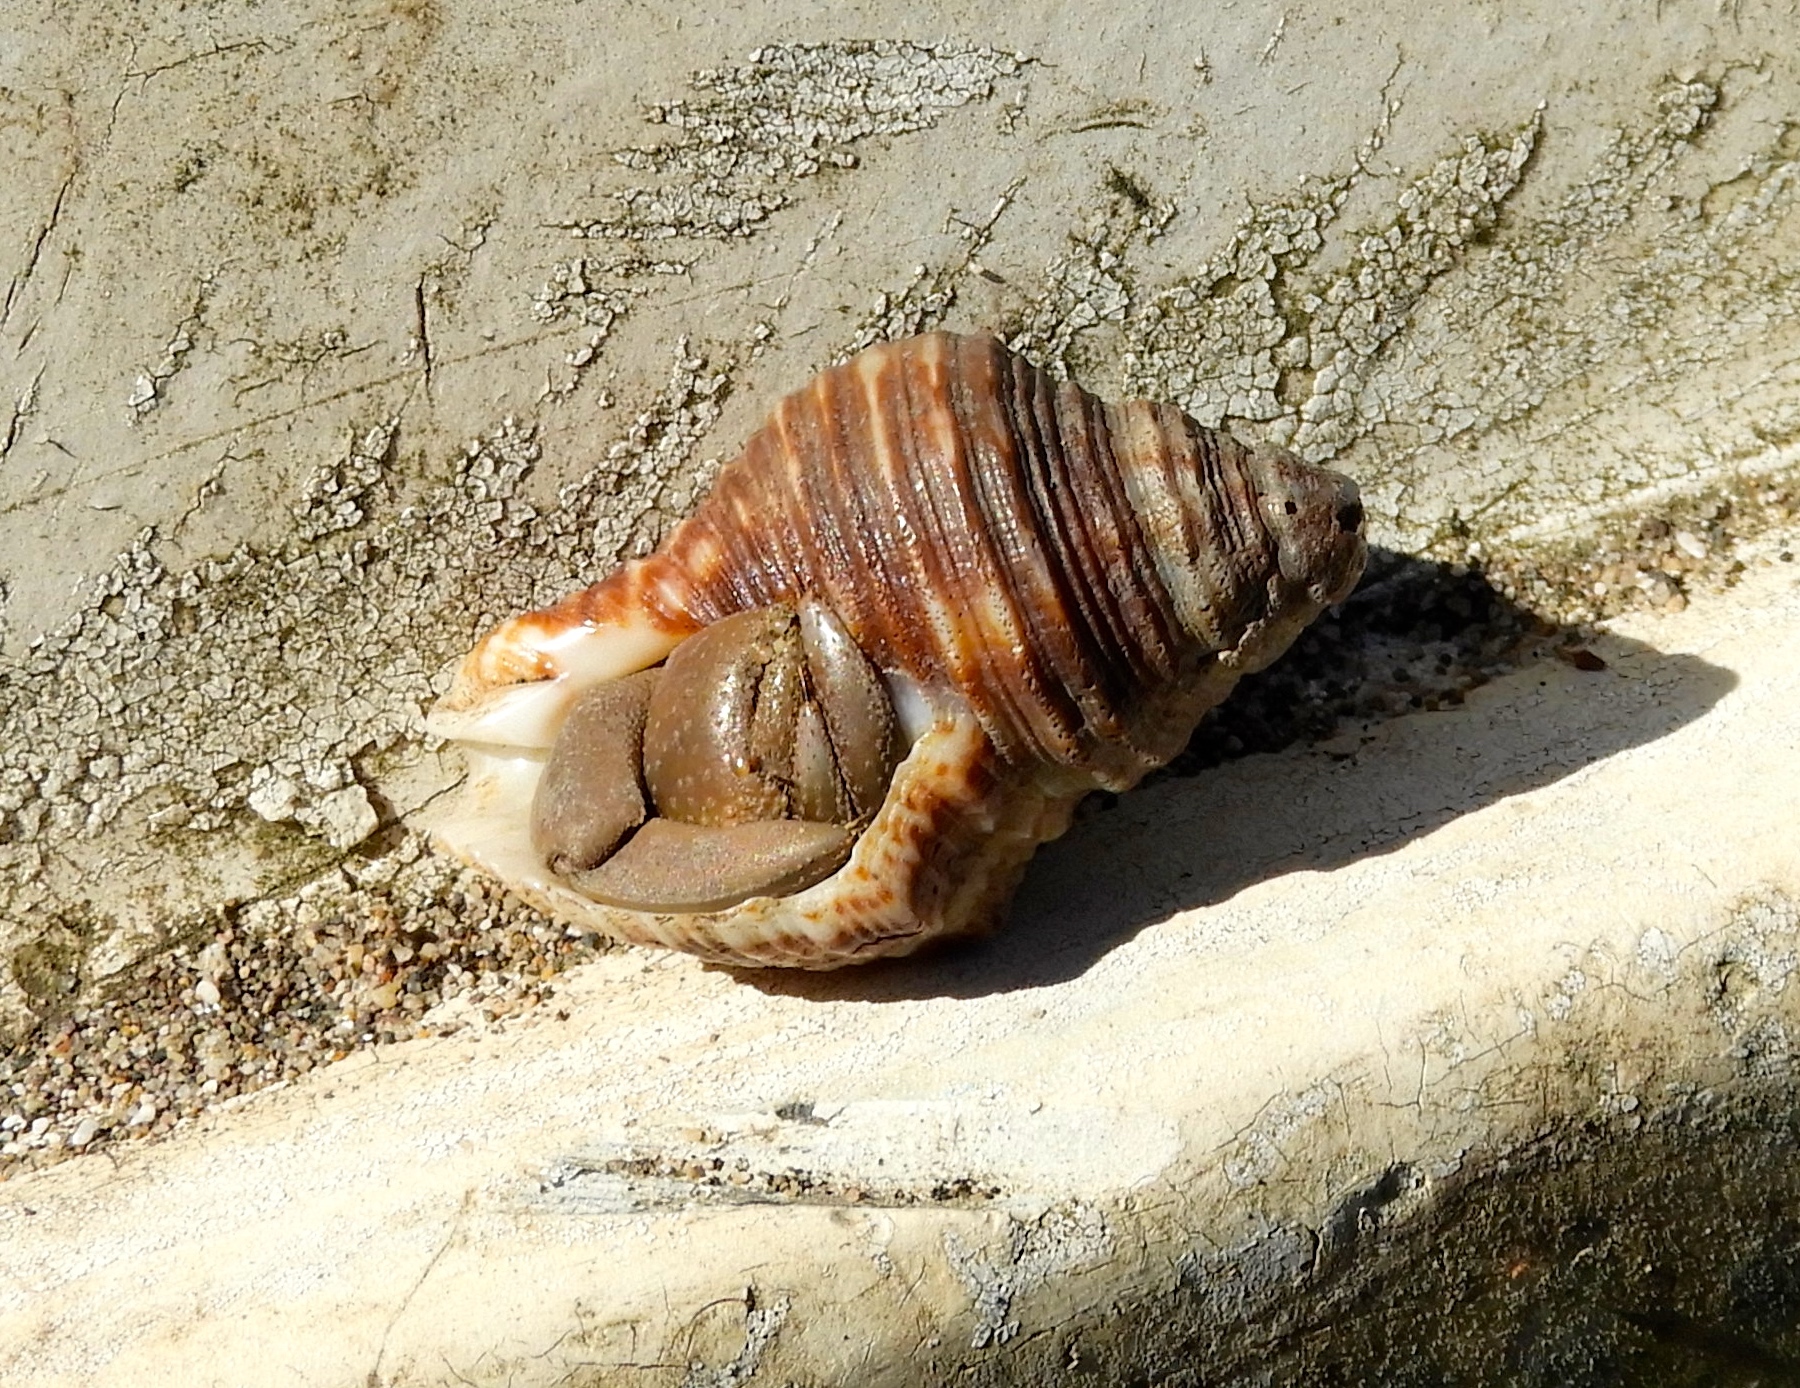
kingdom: Animalia
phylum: Arthropoda
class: Malacostraca
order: Decapoda
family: Coenobitidae
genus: Coenobita
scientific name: Coenobita compressus
